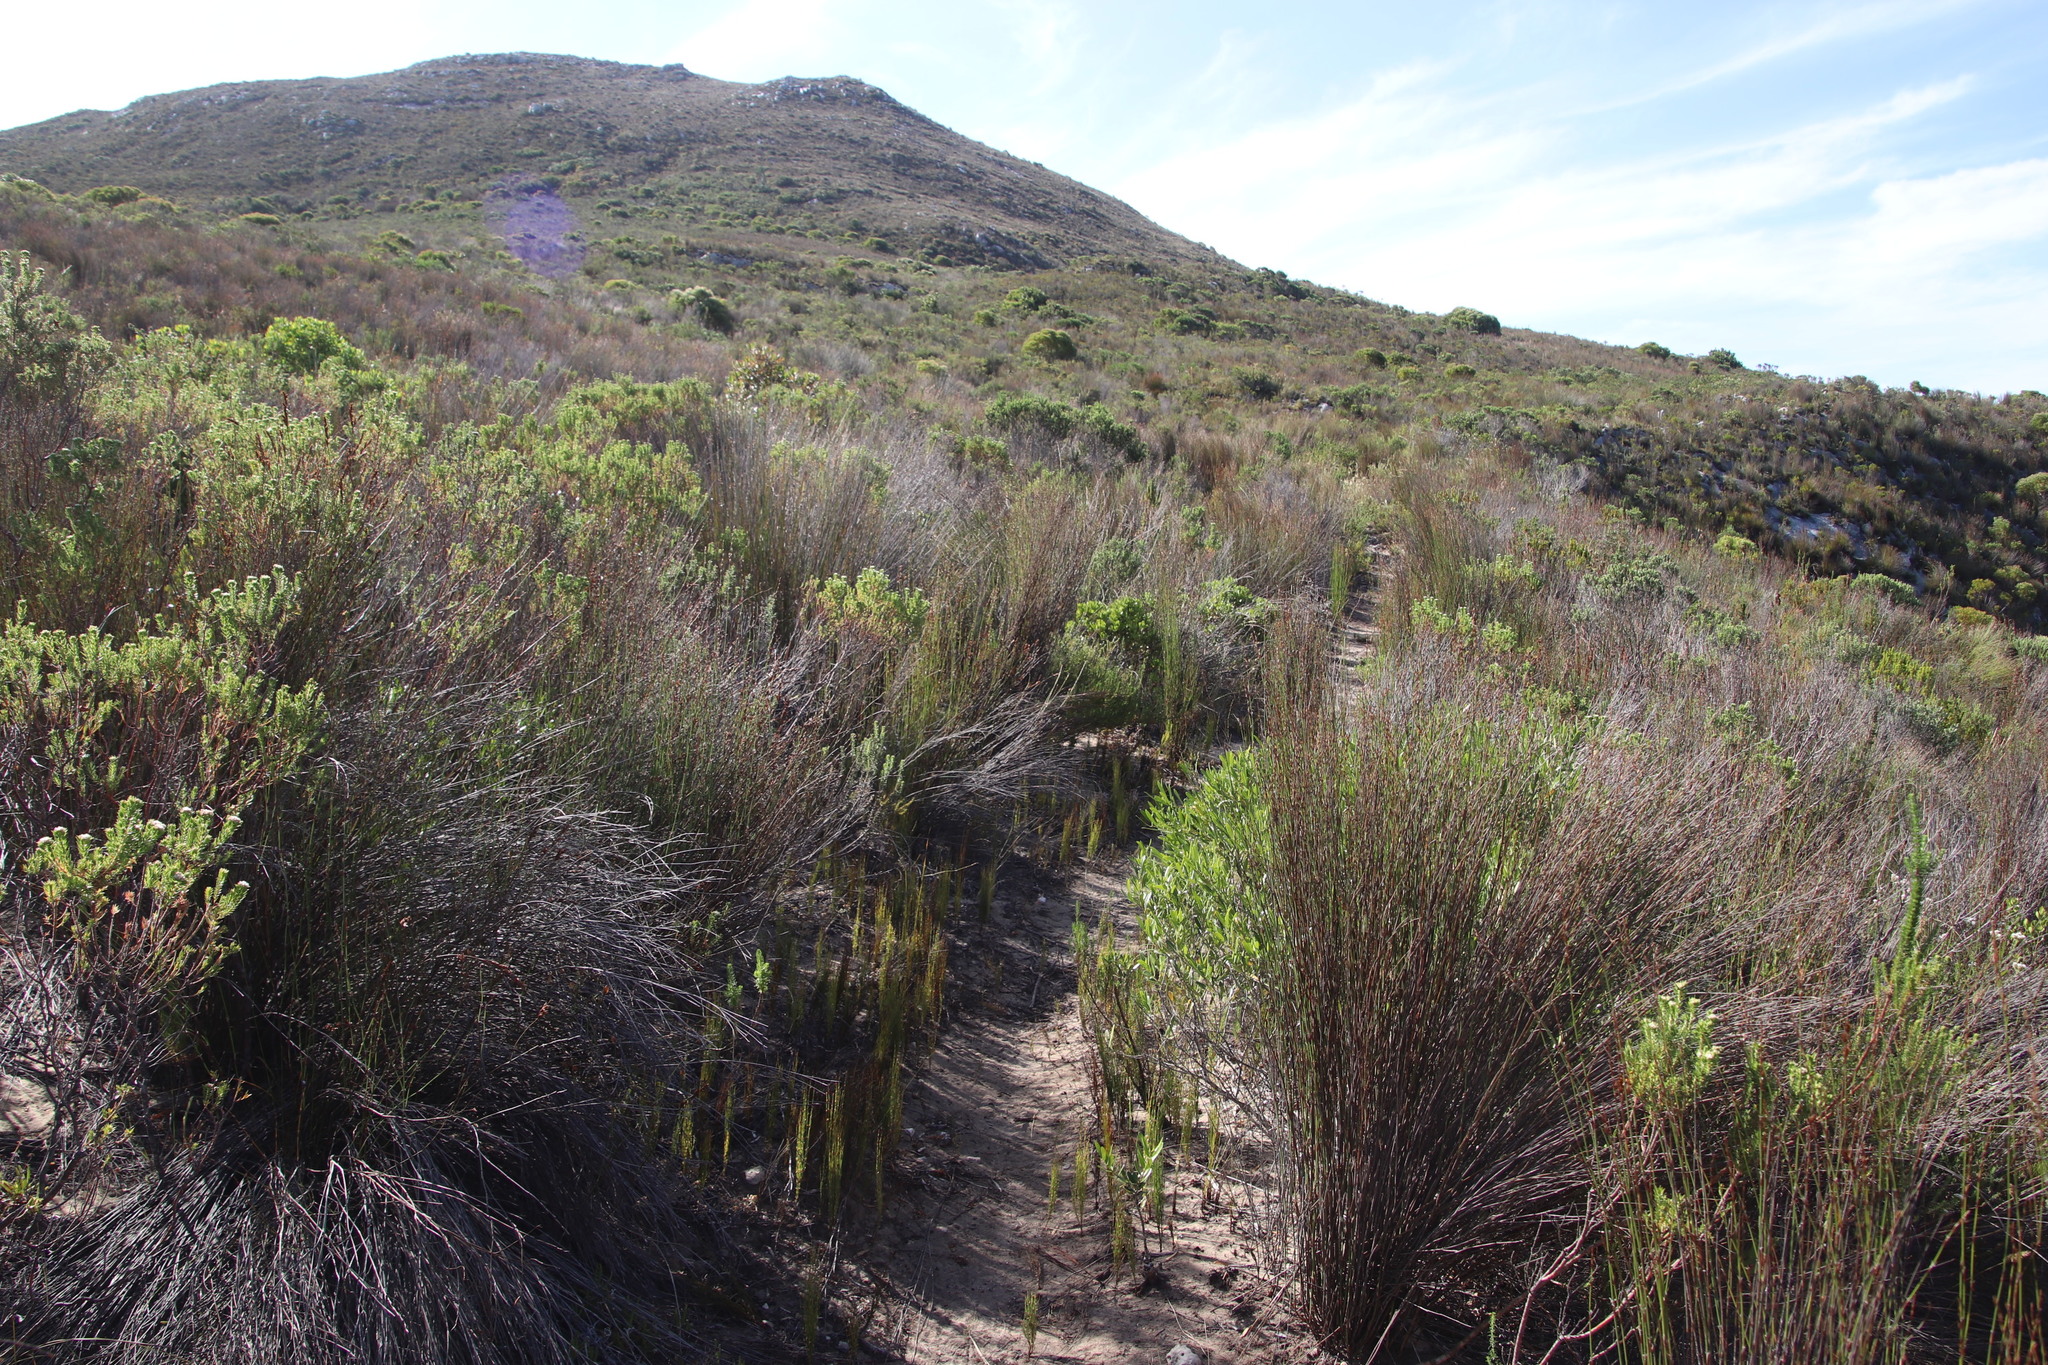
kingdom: Plantae
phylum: Tracheophyta
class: Liliopsida
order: Poales
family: Restionaceae
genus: Elegia
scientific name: Elegia microcarpa
